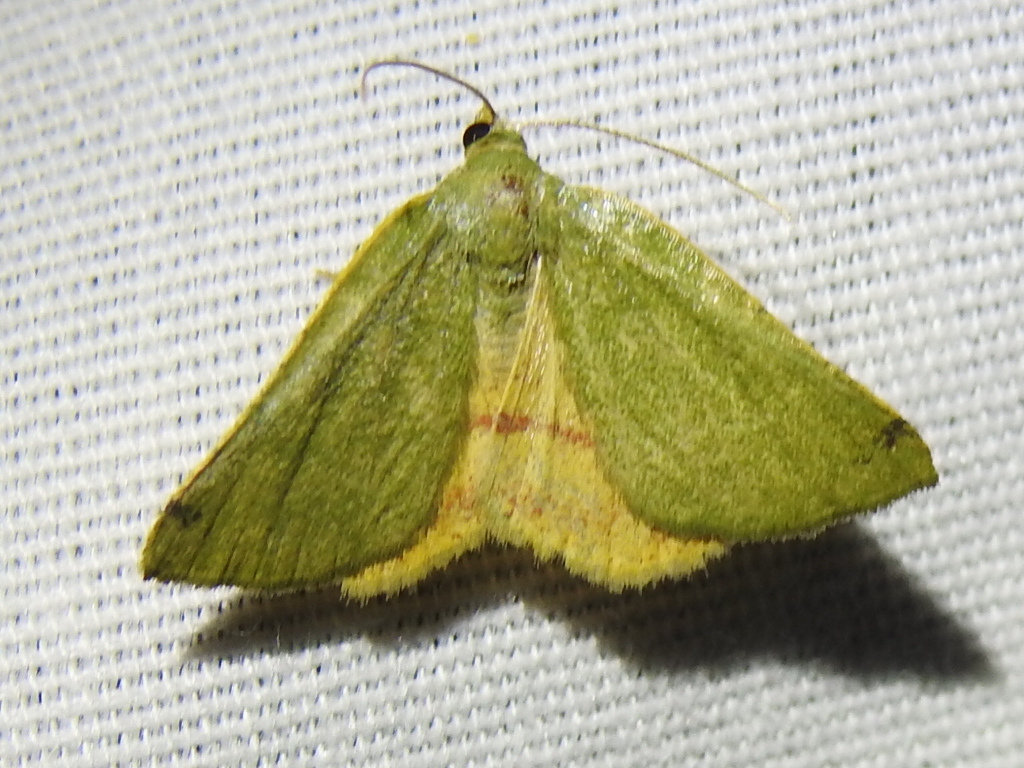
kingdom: Animalia
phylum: Arthropoda
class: Insecta
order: Lepidoptera
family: Geometridae
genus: Chloraspilates
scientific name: Chloraspilates bicoloraria
